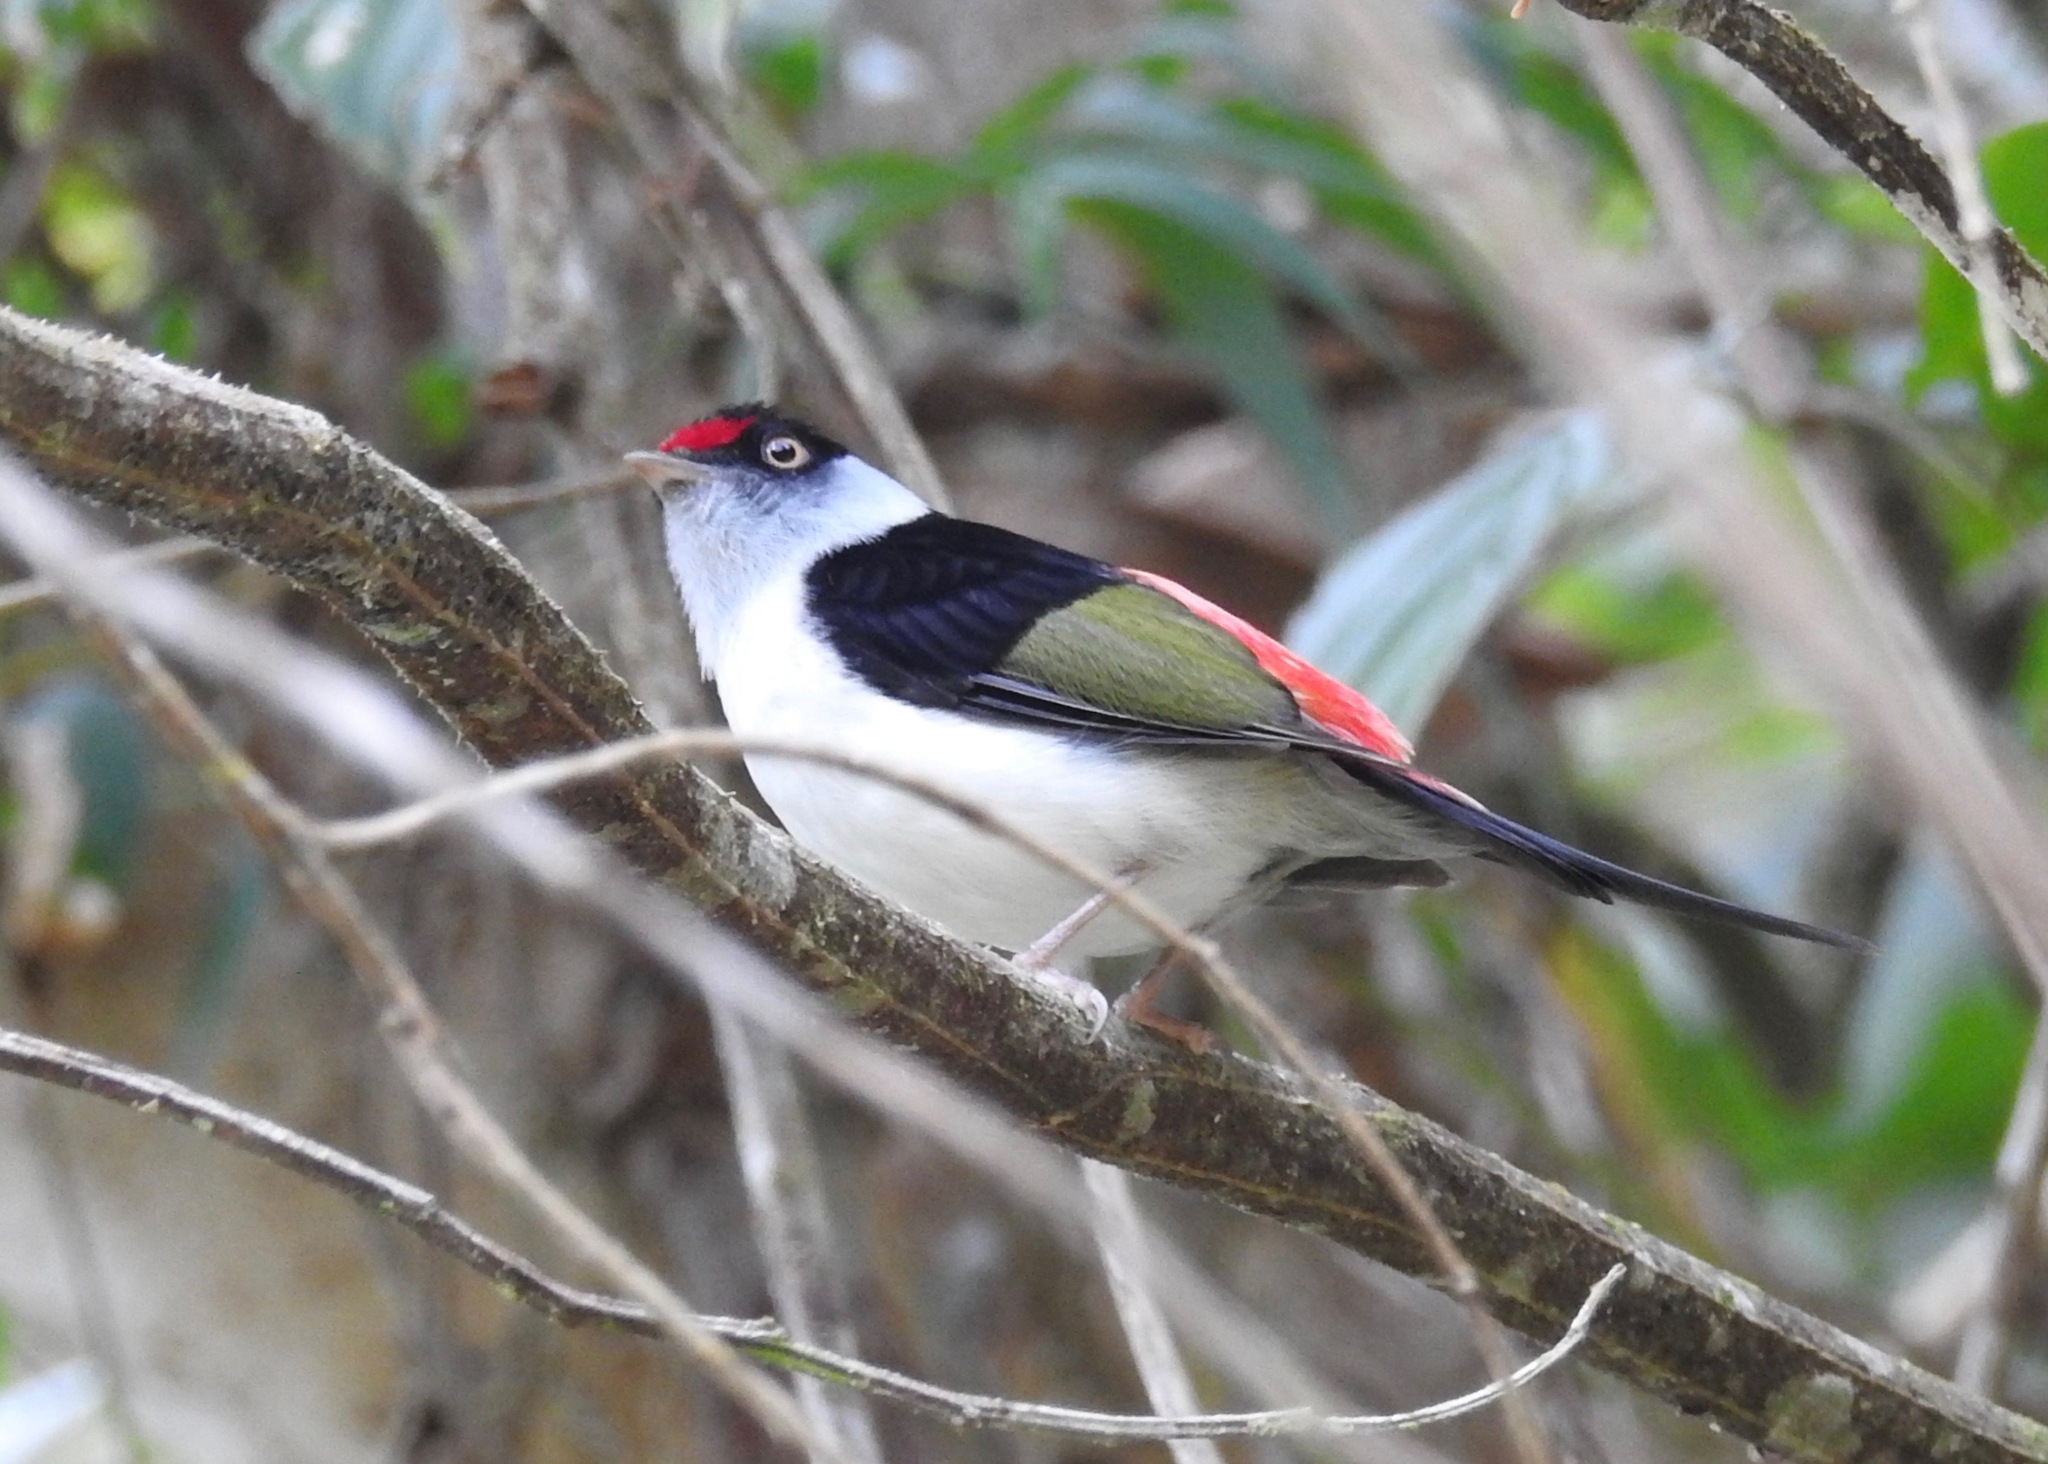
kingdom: Animalia
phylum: Chordata
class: Aves
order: Passeriformes
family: Pipridae
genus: Ilicura
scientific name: Ilicura militaris
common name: Pin-tailed manakin
